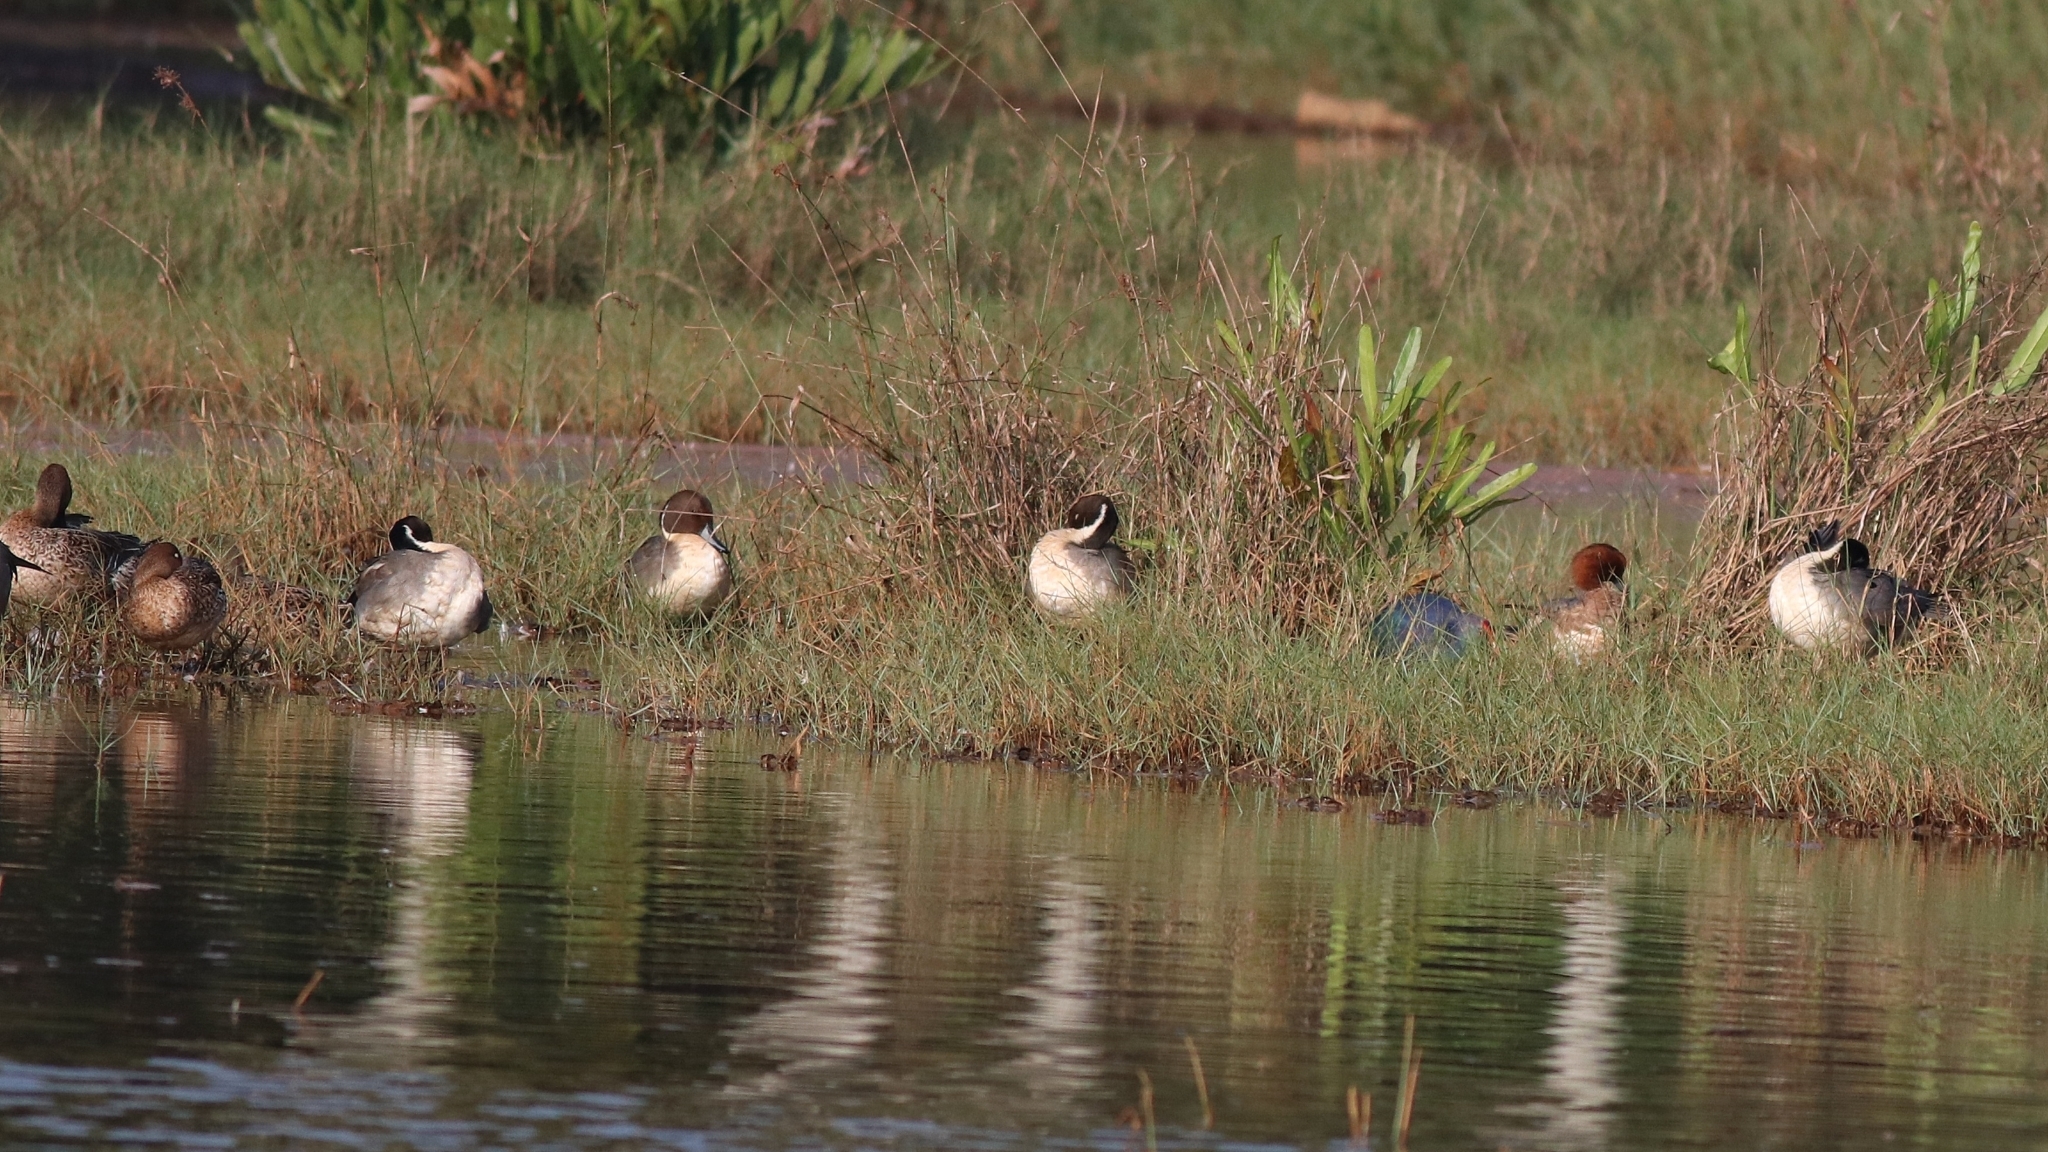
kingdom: Animalia
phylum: Chordata
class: Aves
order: Anseriformes
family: Anatidae
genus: Anas
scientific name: Anas acuta
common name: Northern pintail
